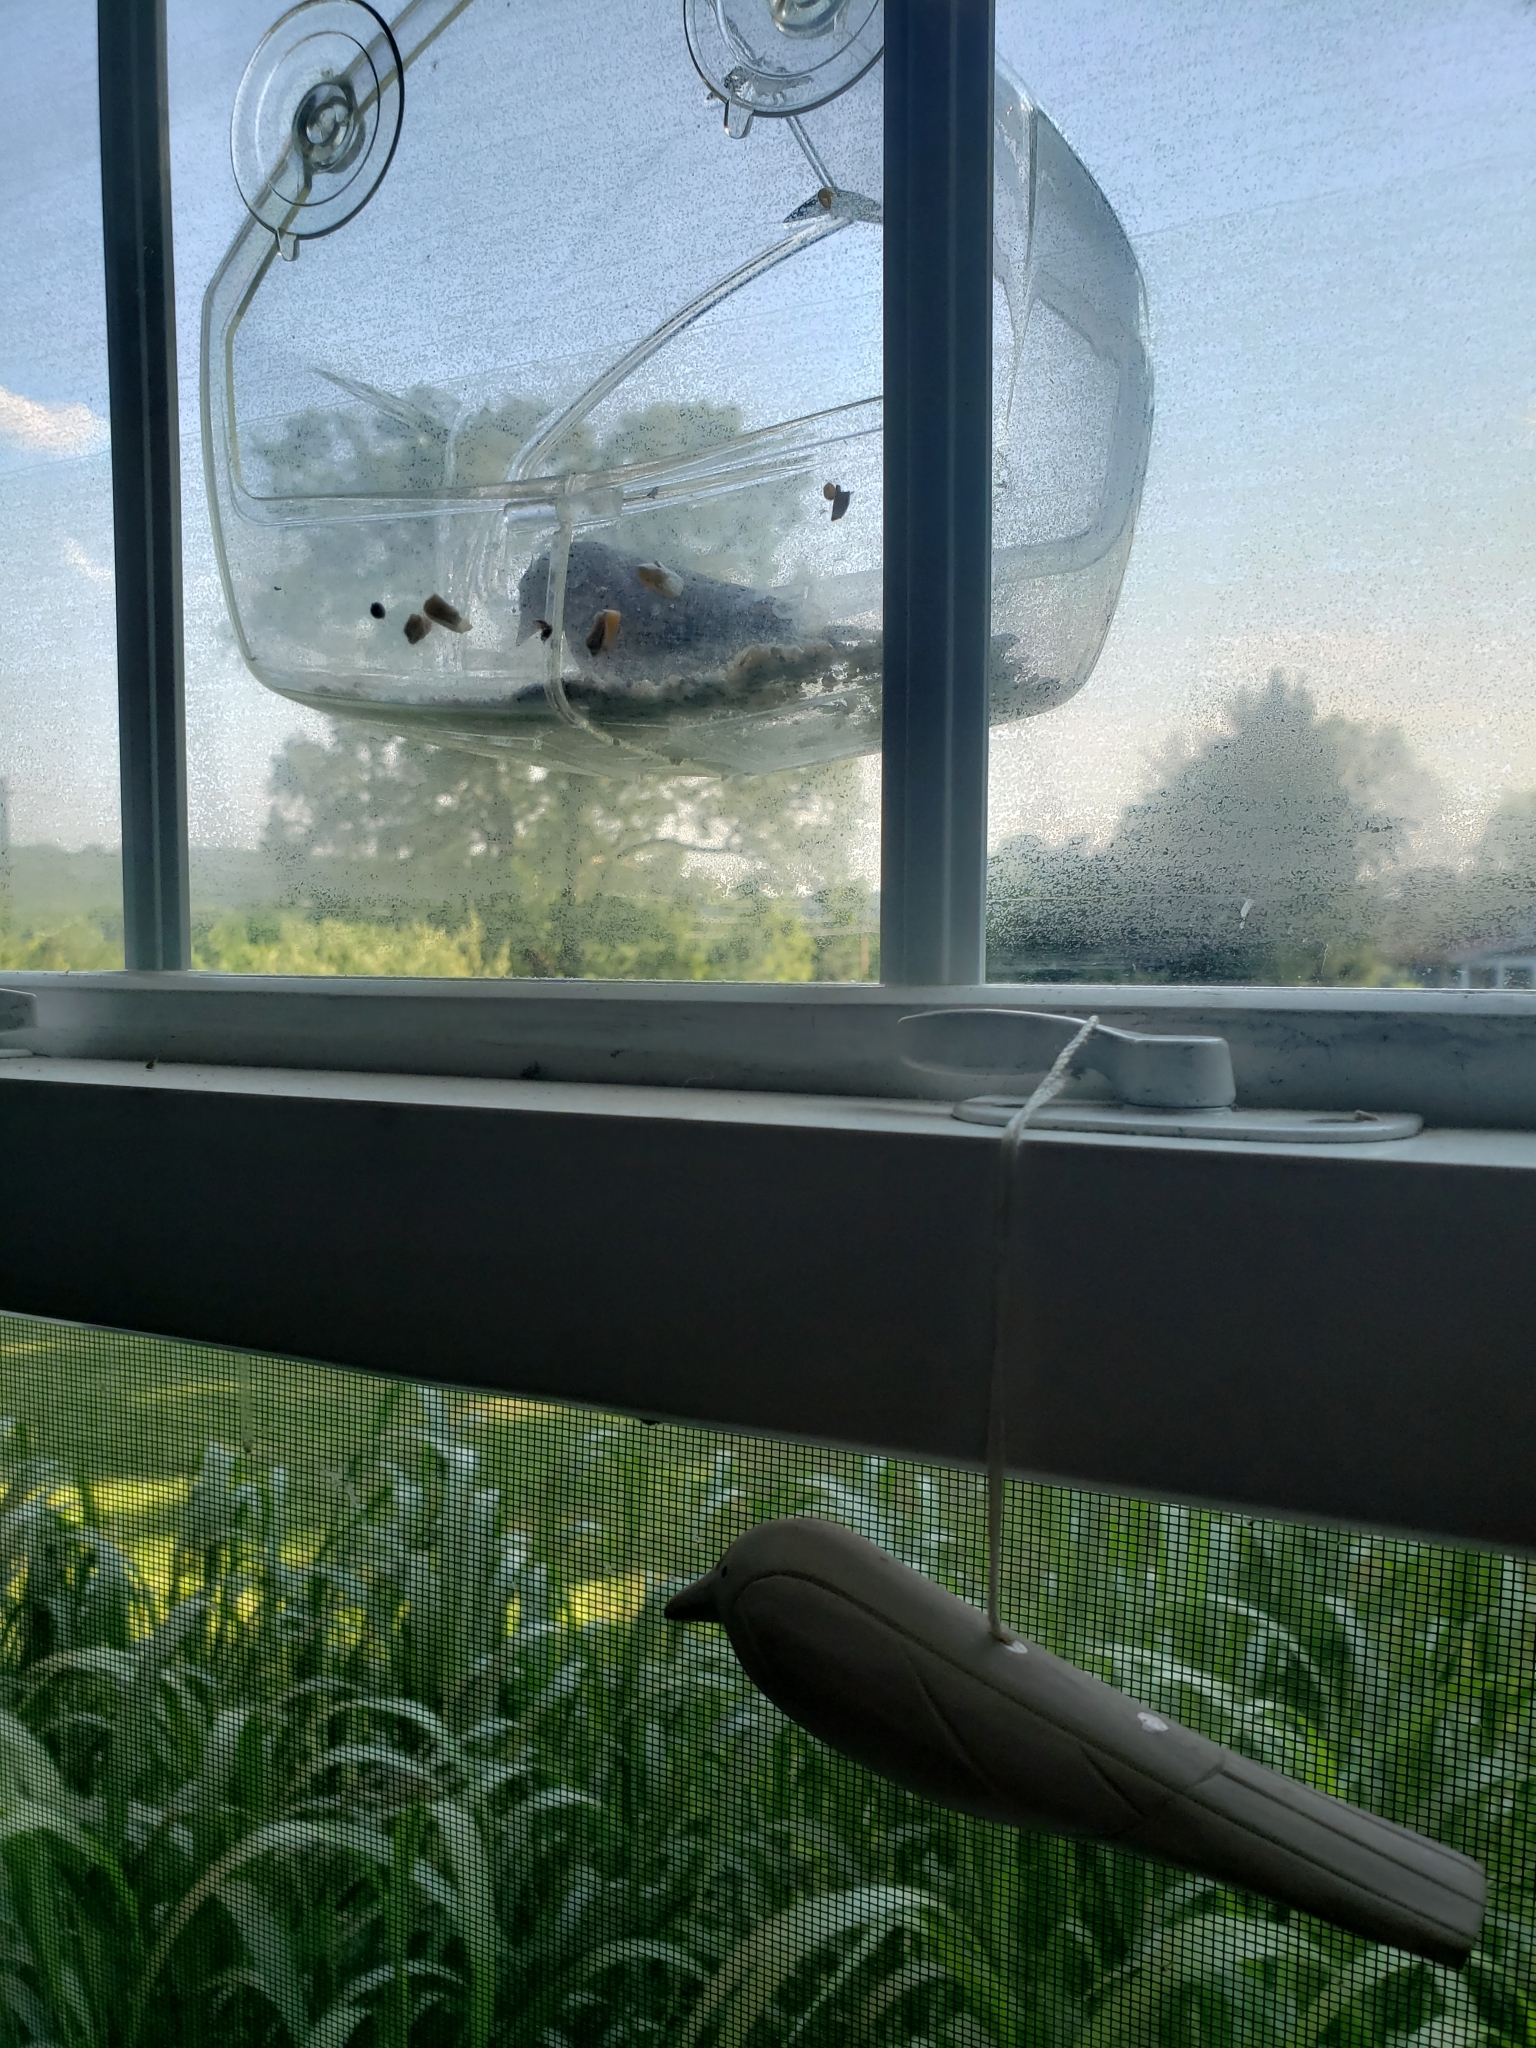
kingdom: Animalia
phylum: Chordata
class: Aves
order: Passeriformes
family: Passerellidae
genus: Spizella
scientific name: Spizella passerina
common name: Chipping sparrow
